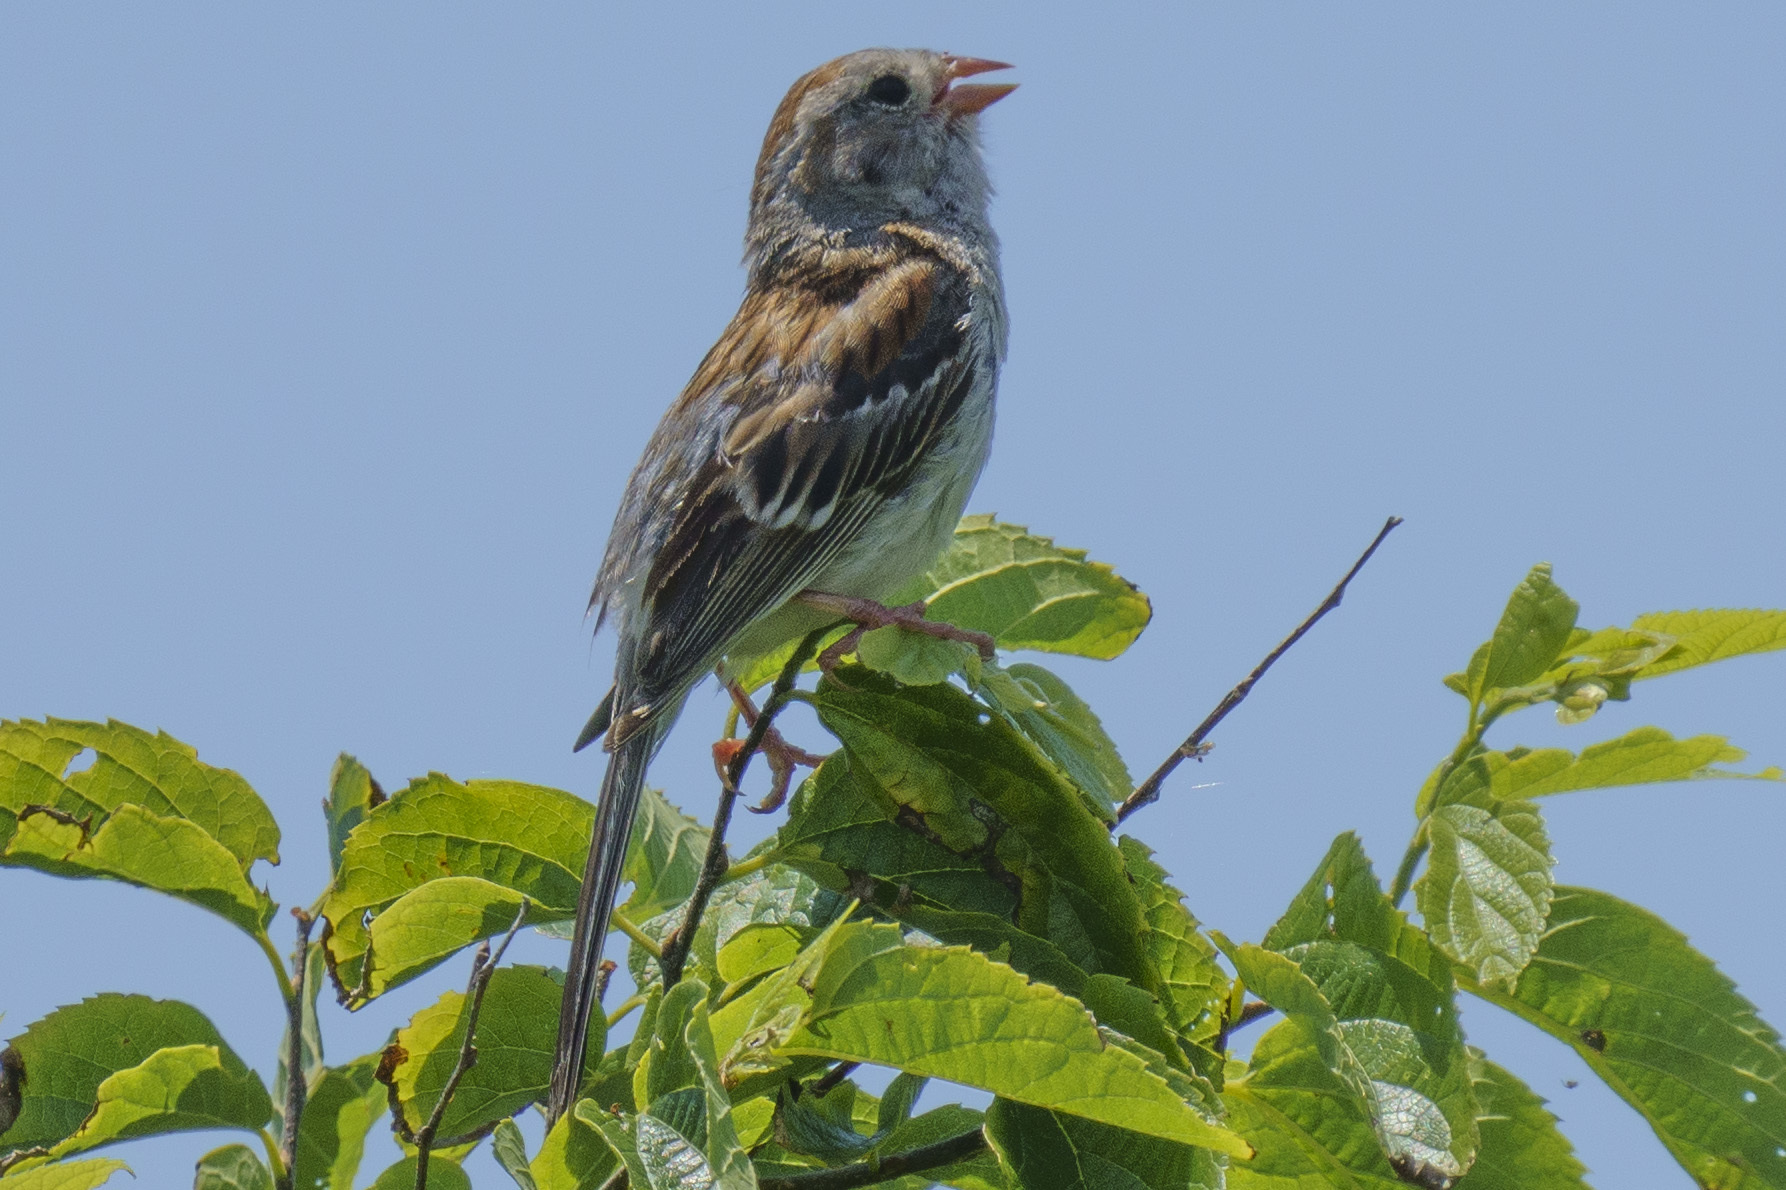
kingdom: Animalia
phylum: Chordata
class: Aves
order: Passeriformes
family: Passerellidae
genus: Spizella
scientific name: Spizella pusilla
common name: Field sparrow
